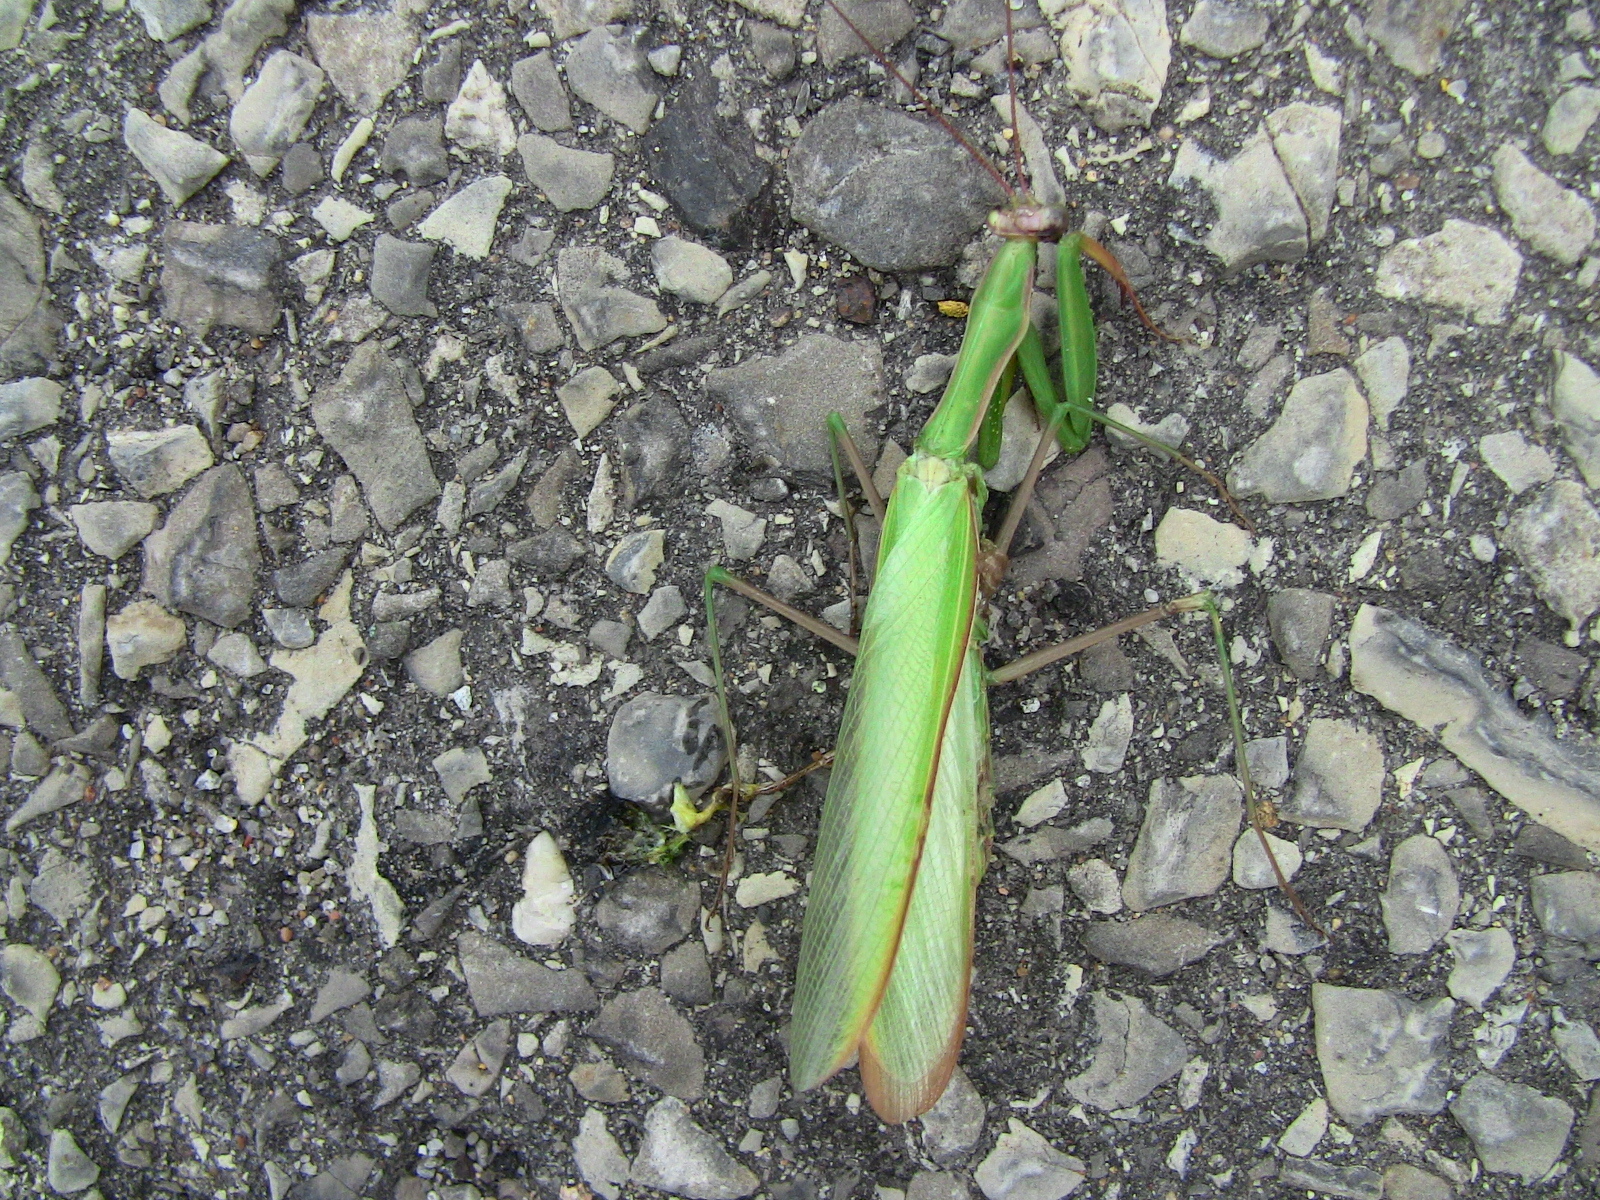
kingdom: Animalia
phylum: Arthropoda
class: Insecta
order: Mantodea
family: Mantidae
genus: Mantis
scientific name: Mantis religiosa
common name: Praying mantis
